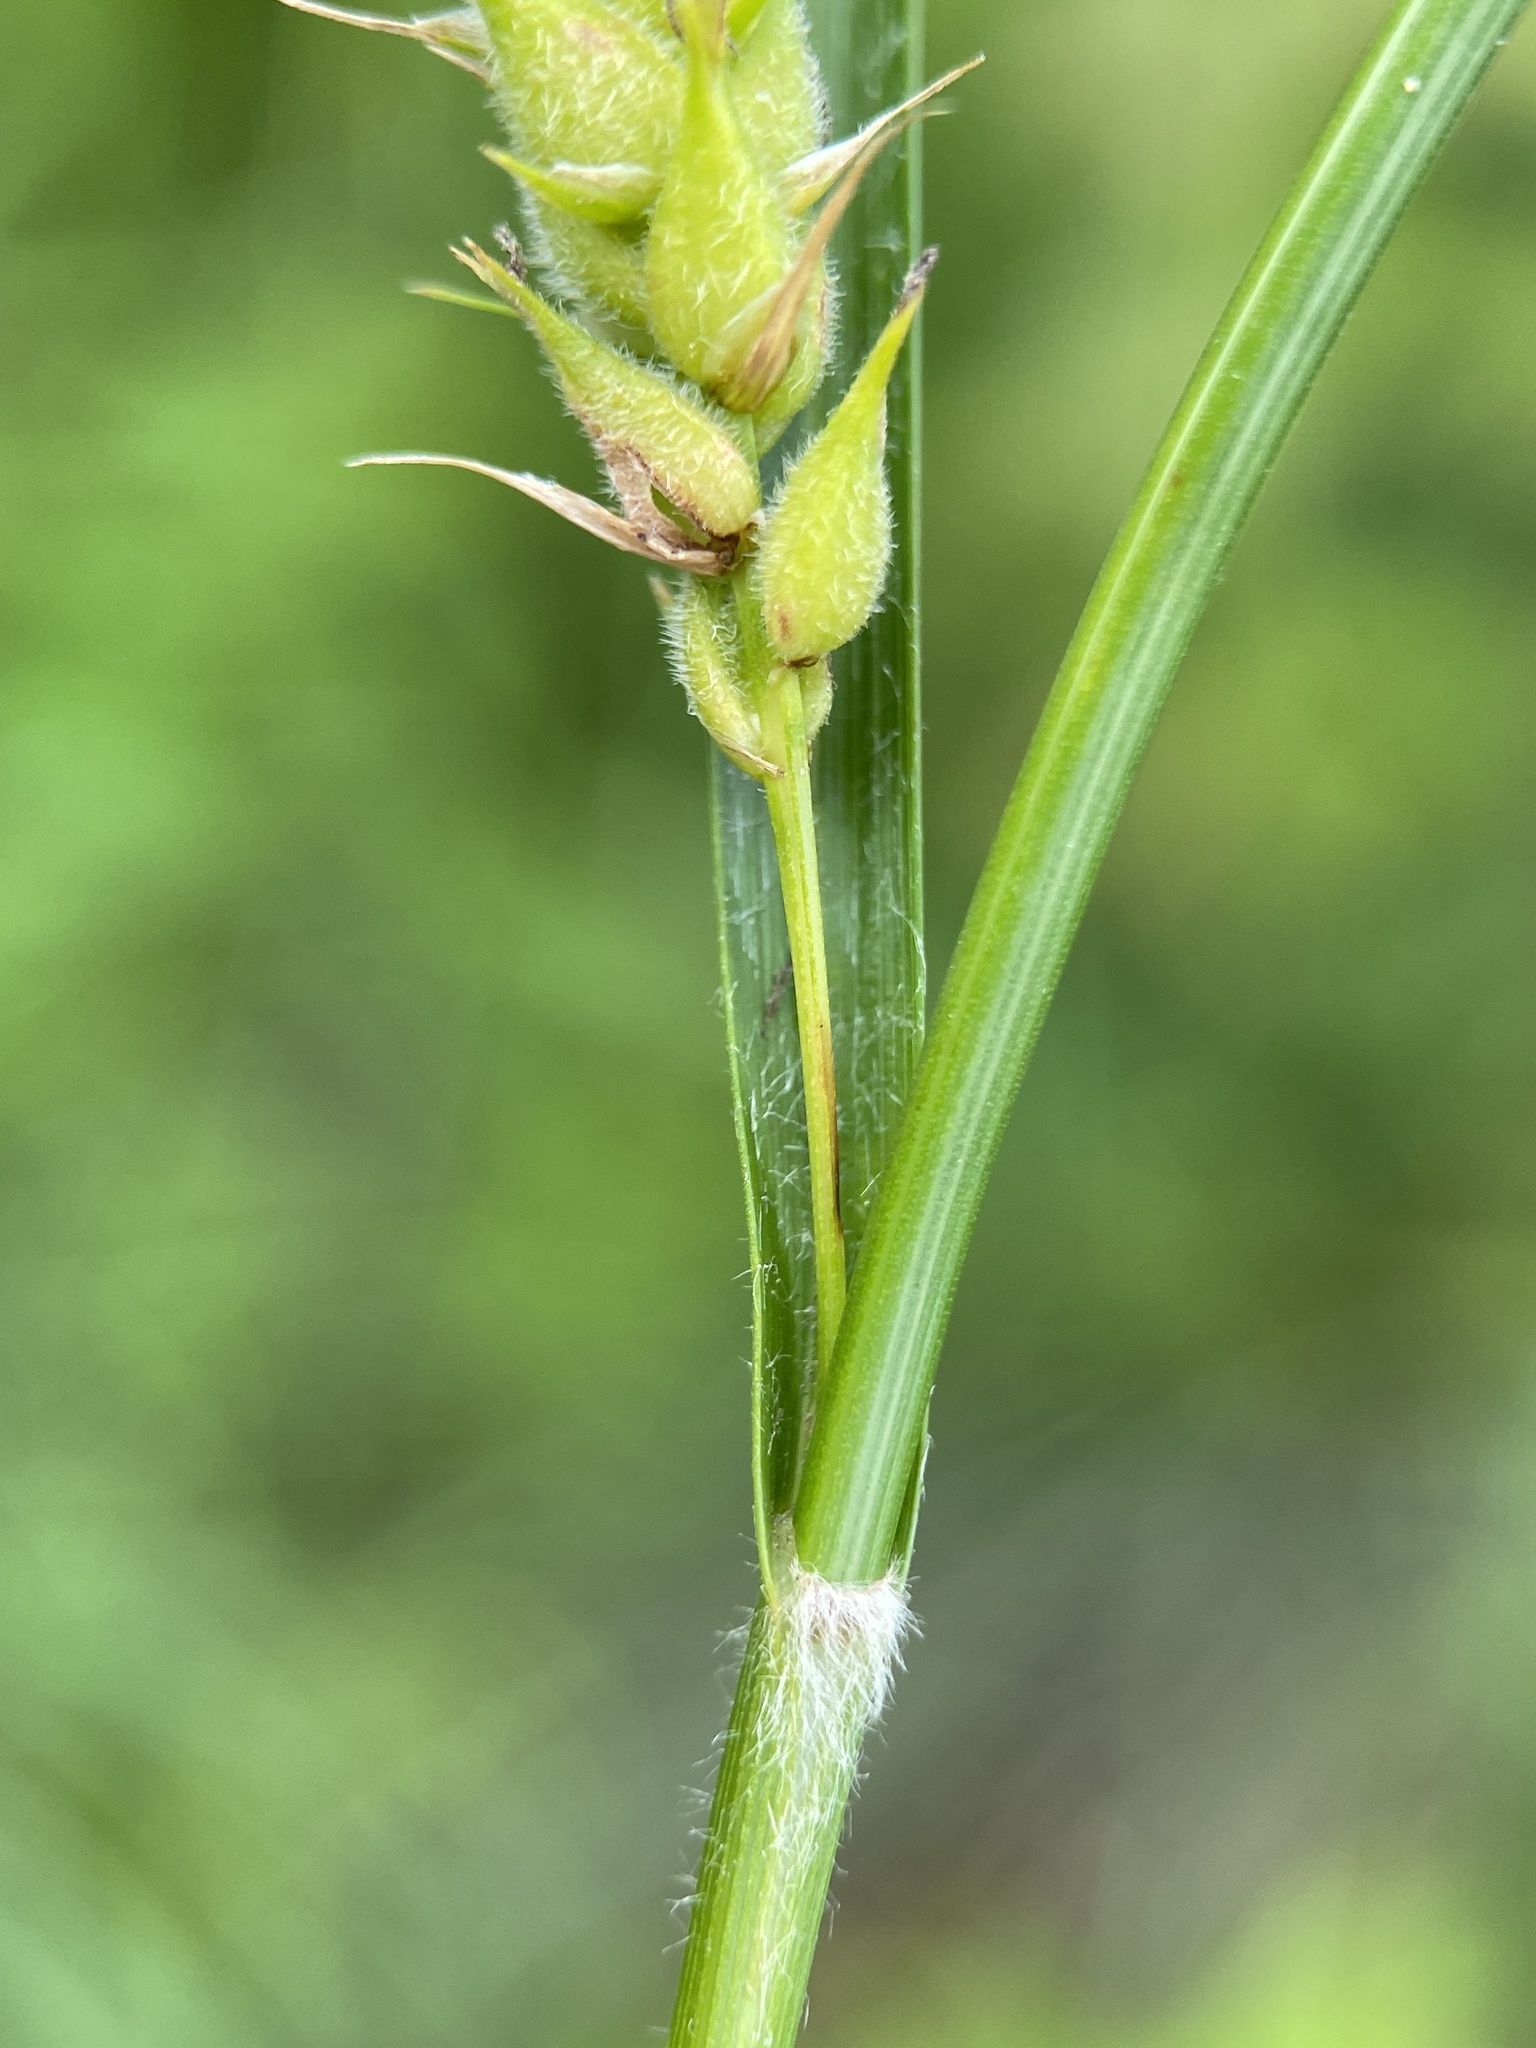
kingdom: Plantae
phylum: Tracheophyta
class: Liliopsida
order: Poales
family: Cyperaceae
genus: Carex
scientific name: Carex hirta
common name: Hairy sedge
